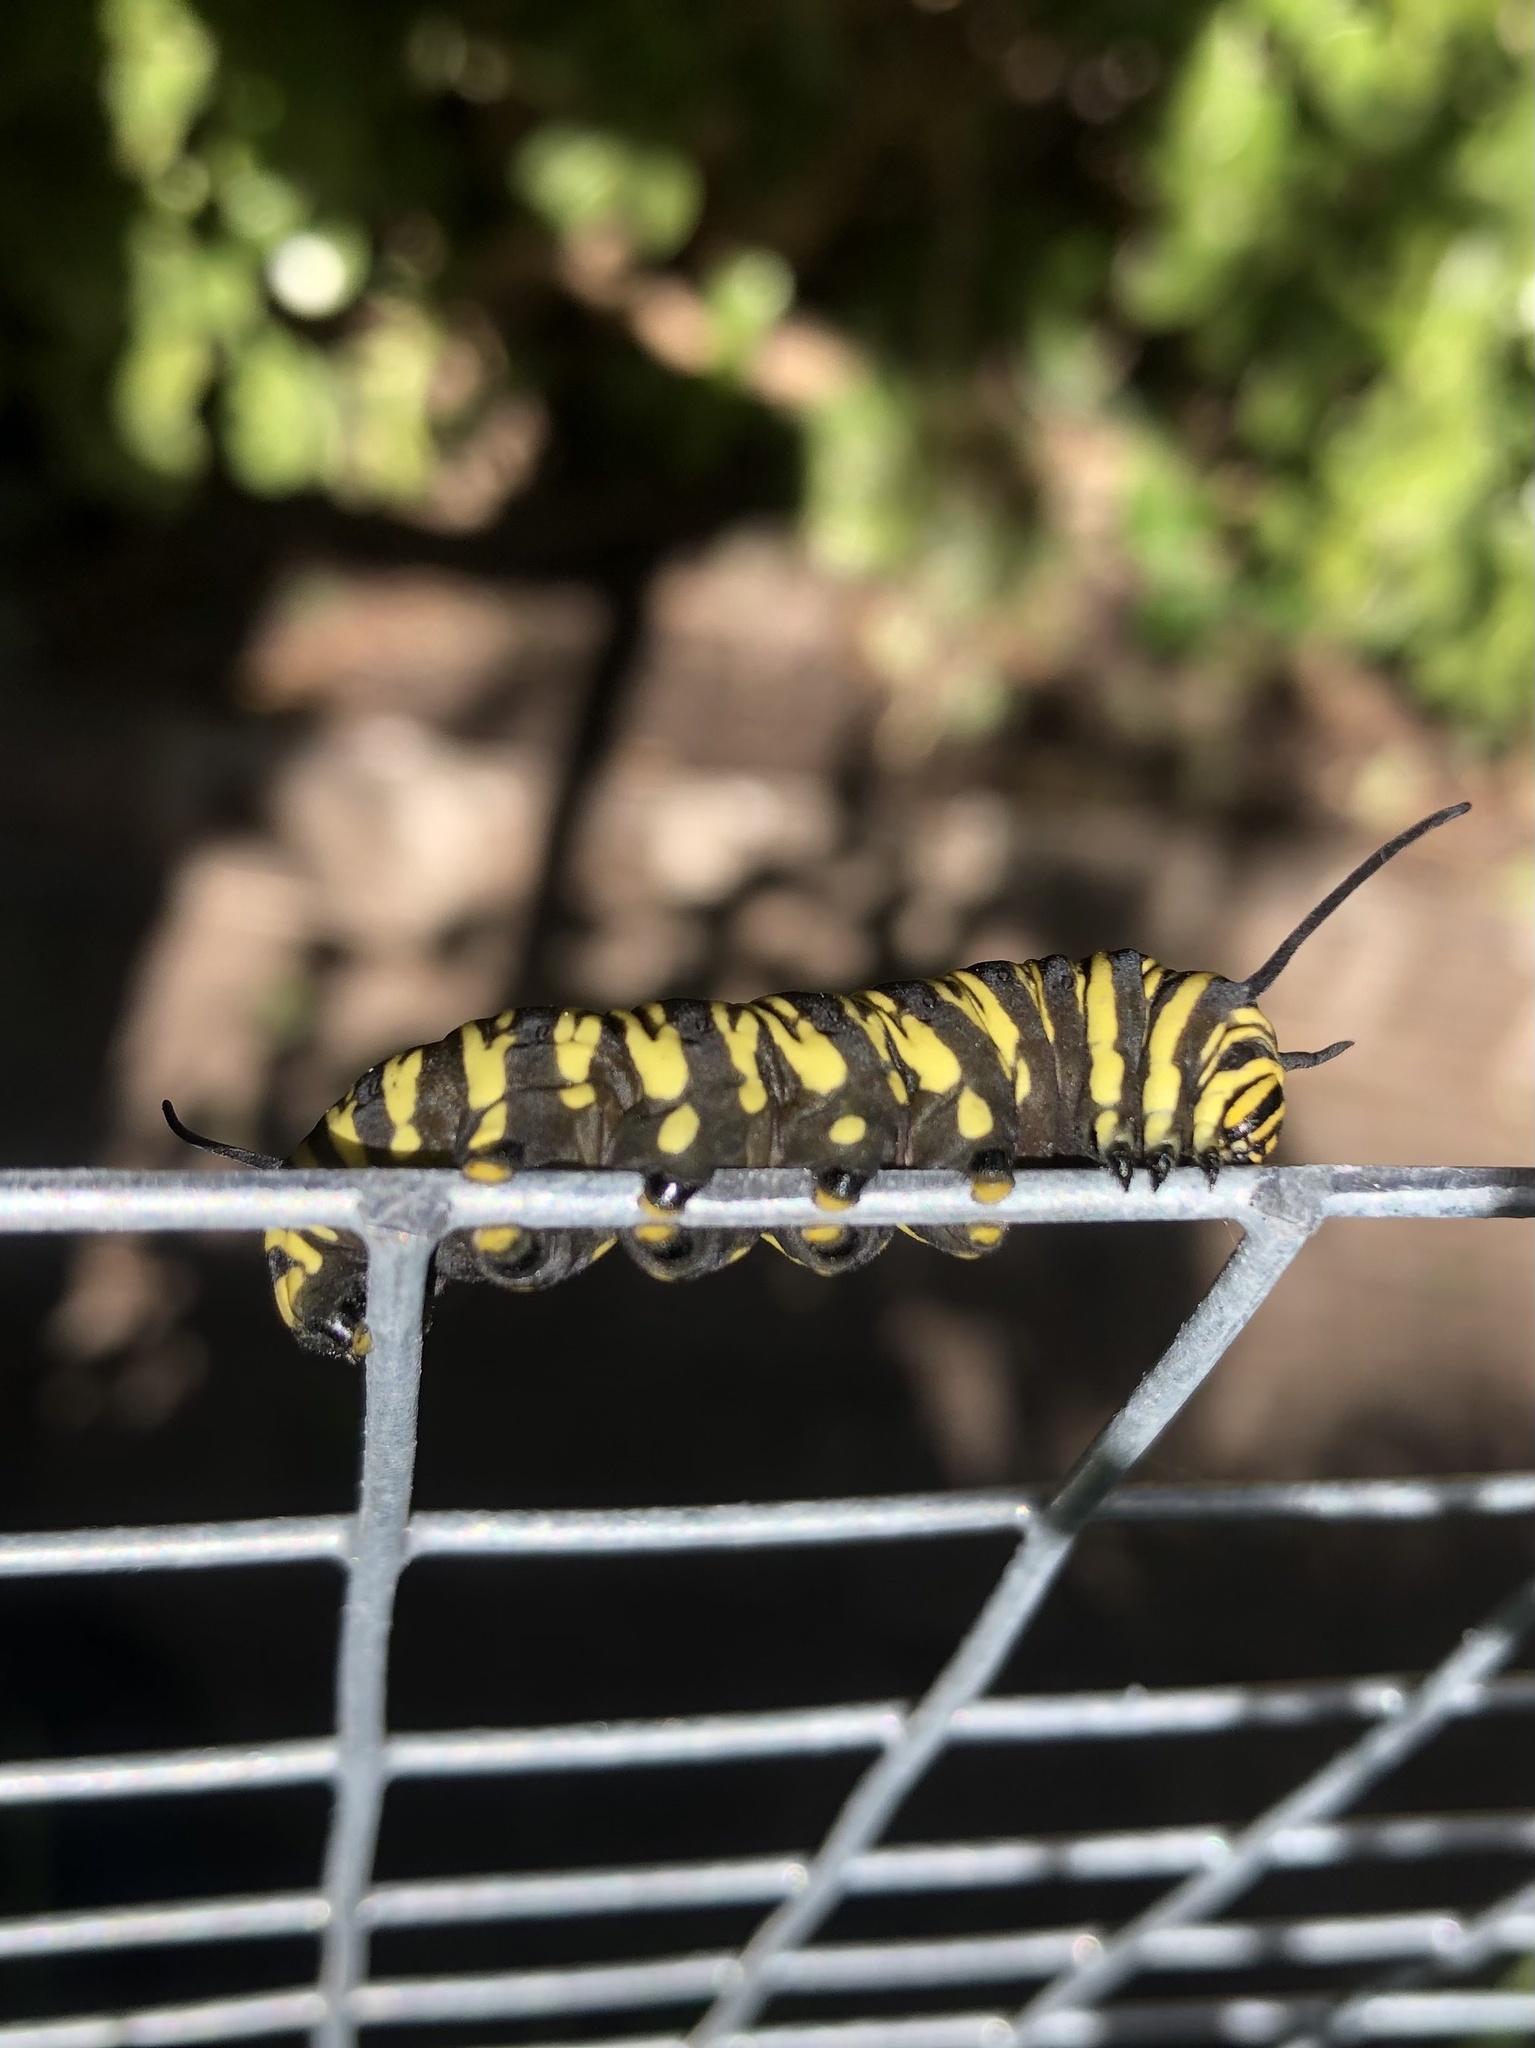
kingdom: Animalia
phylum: Arthropoda
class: Insecta
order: Lepidoptera
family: Nymphalidae
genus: Danaus
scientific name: Danaus erippus
